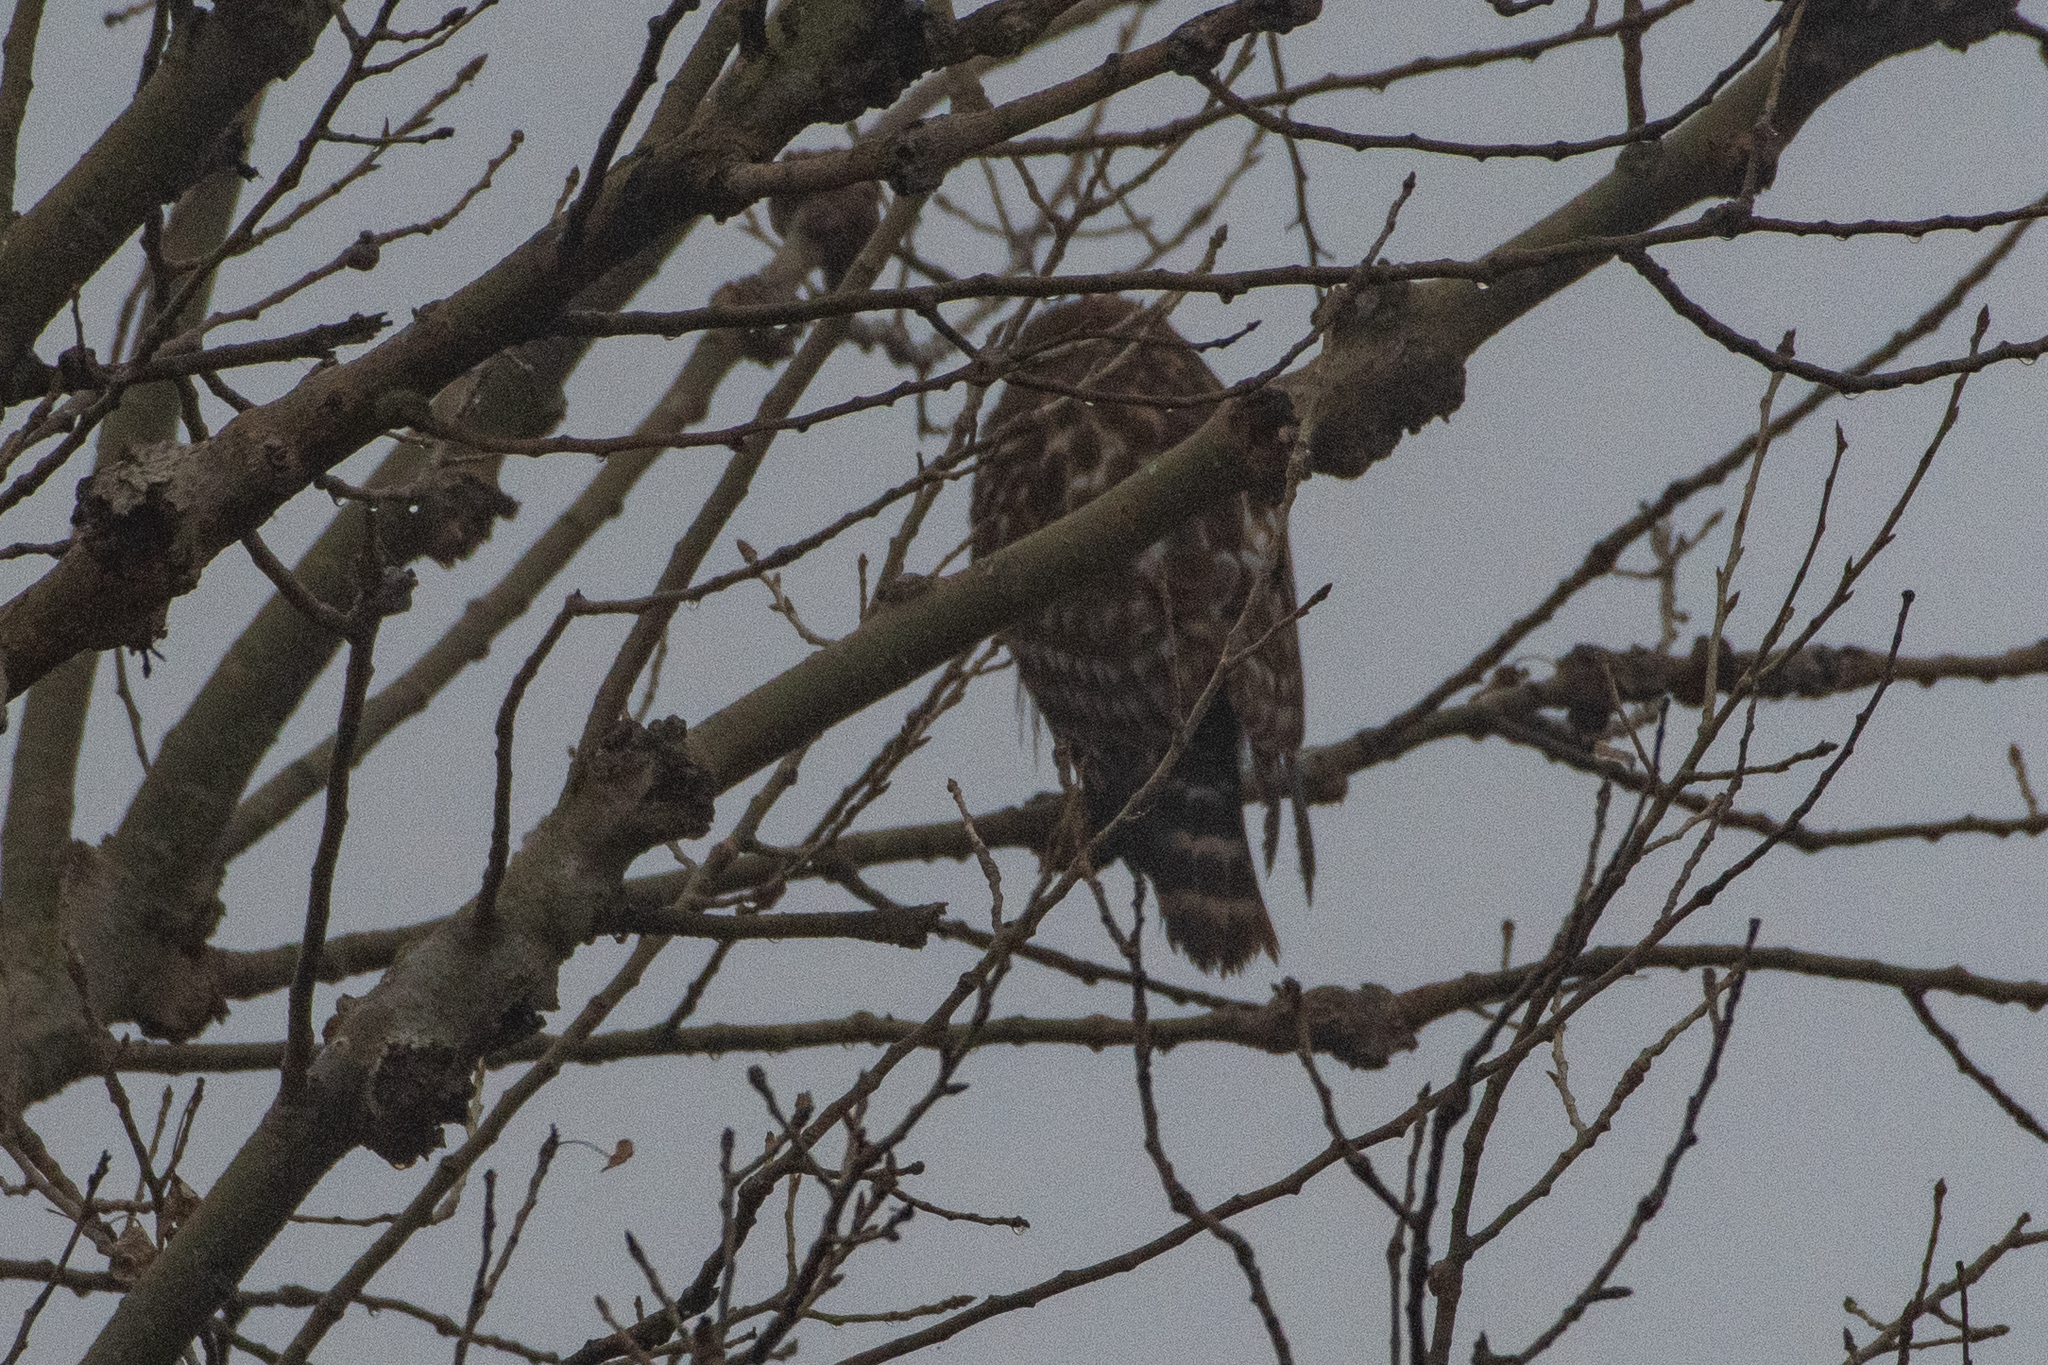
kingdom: Animalia
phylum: Chordata
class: Aves
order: Accipitriformes
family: Accipitridae
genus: Buteo
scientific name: Buteo lineatus
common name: Red-shouldered hawk
